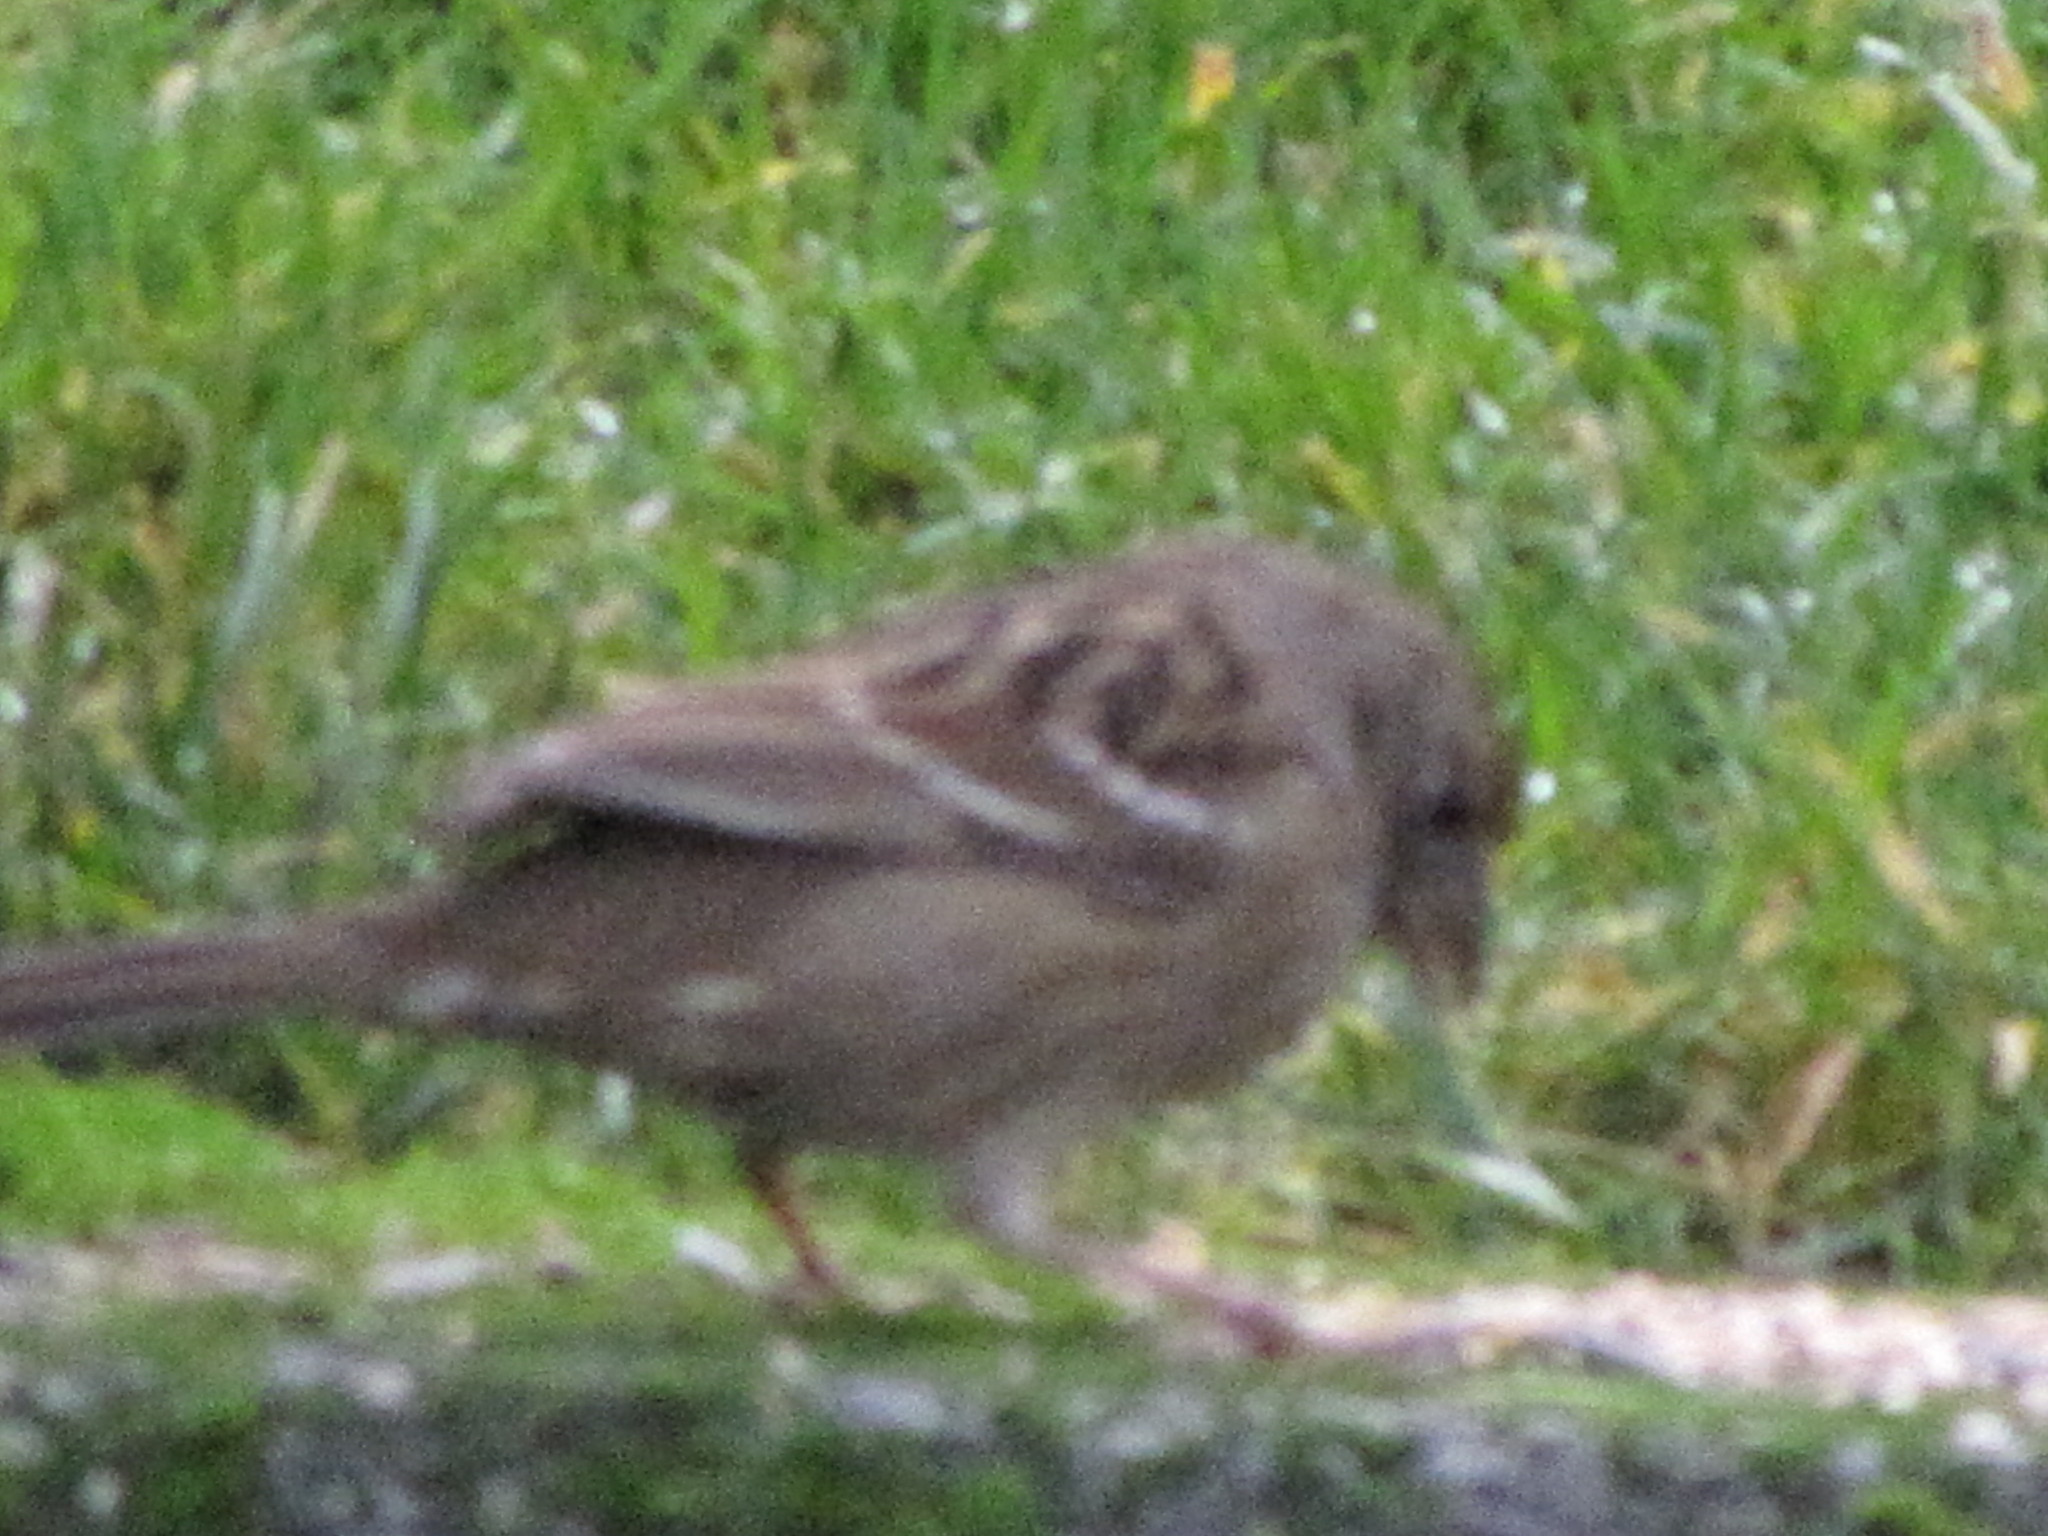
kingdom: Animalia
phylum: Chordata
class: Aves
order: Passeriformes
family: Passerellidae
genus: Zonotrichia
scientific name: Zonotrichia atricapilla
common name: Golden-crowned sparrow
